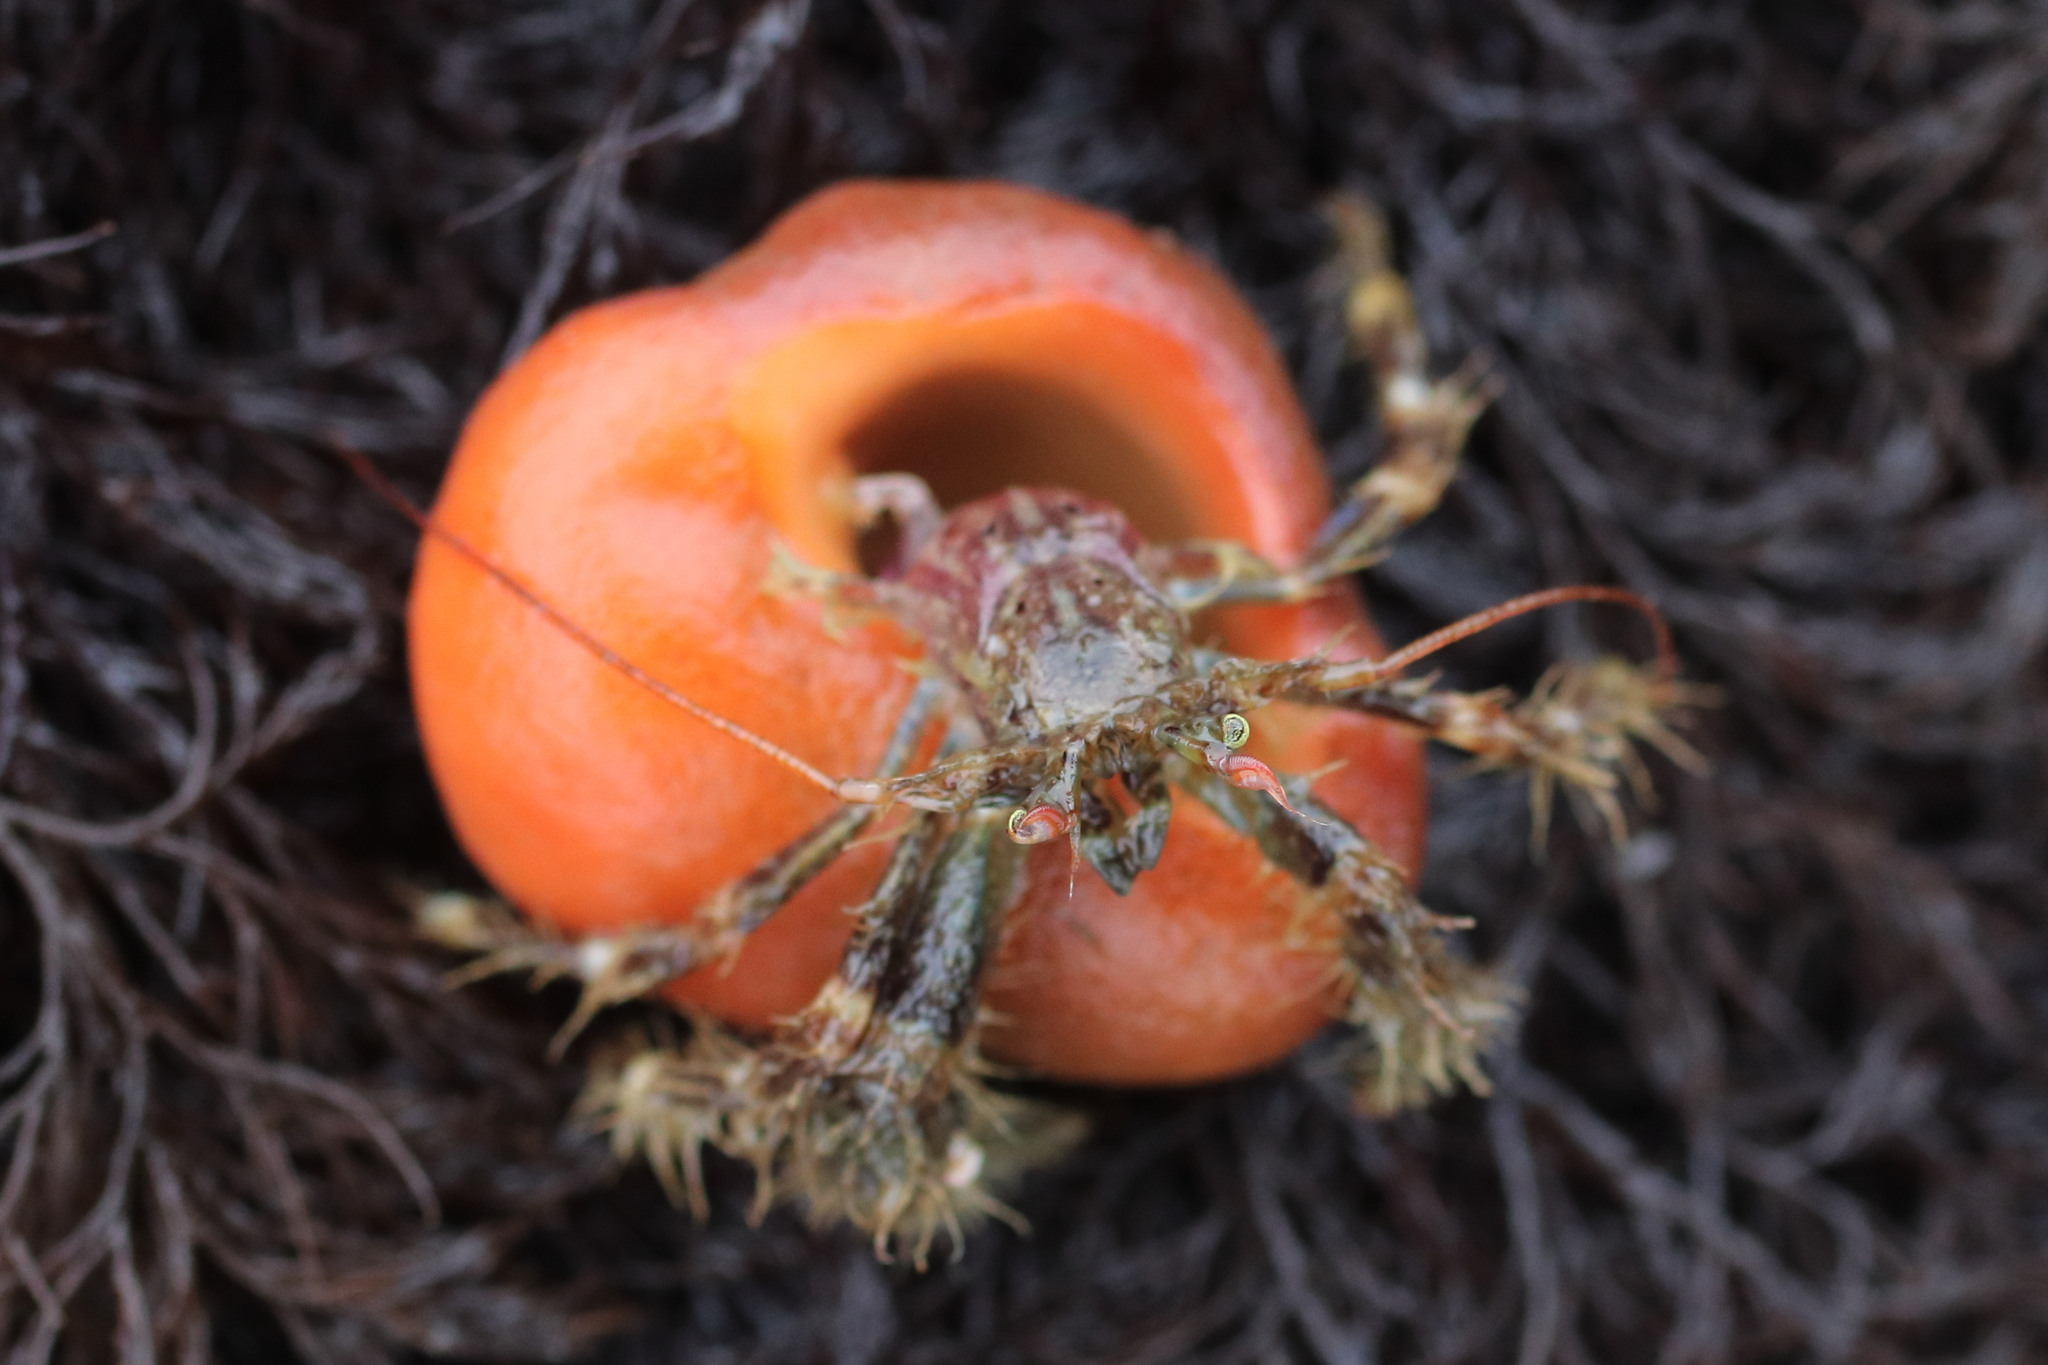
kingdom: Animalia
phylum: Arthropoda
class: Malacostraca
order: Decapoda
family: Paguridae
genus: Pagurus
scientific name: Pagurus caurinus
